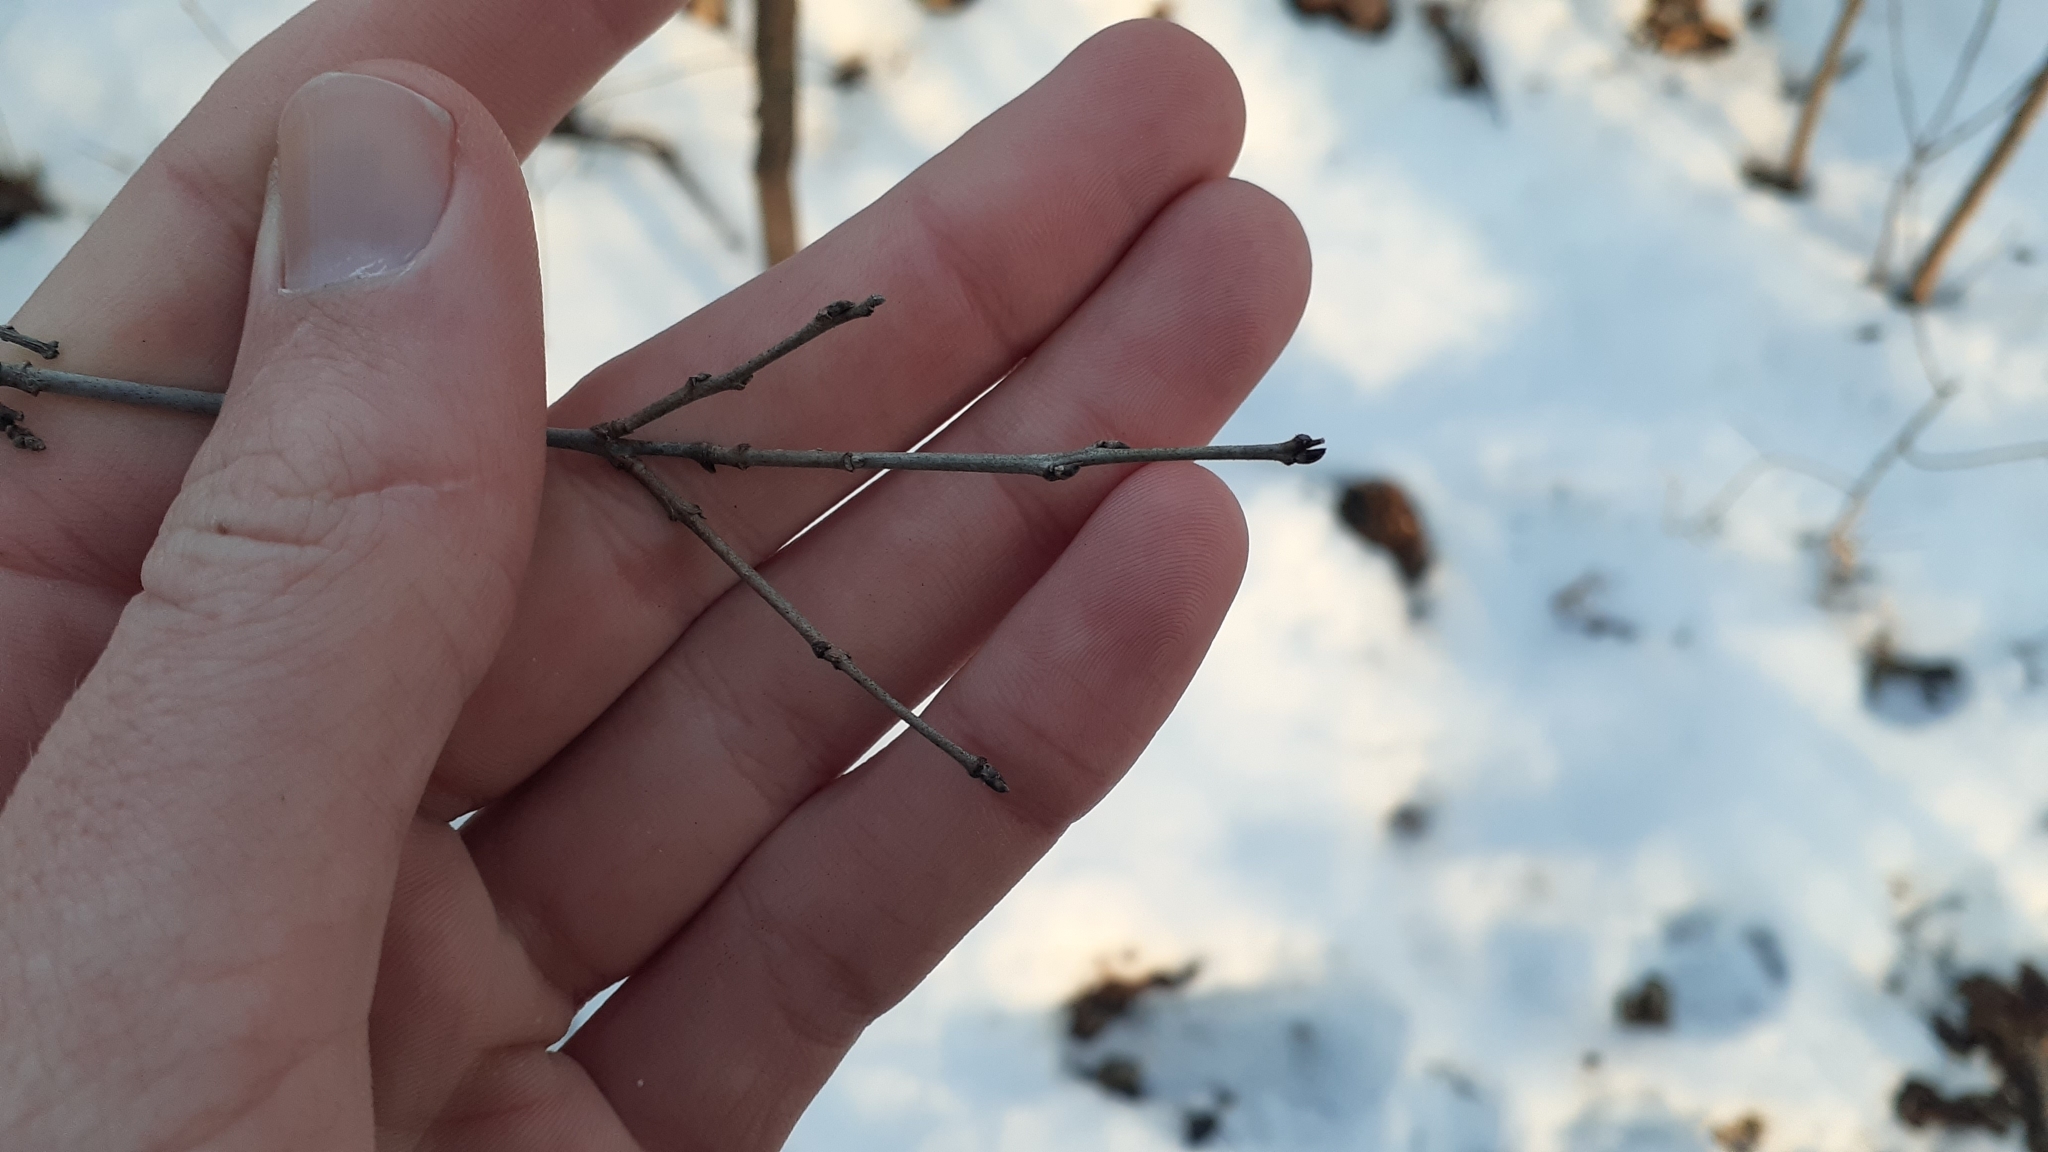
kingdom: Plantae
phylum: Tracheophyta
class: Magnoliopsida
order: Rosales
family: Rhamnaceae
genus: Rhamnus
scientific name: Rhamnus cathartica
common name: Common buckthorn
